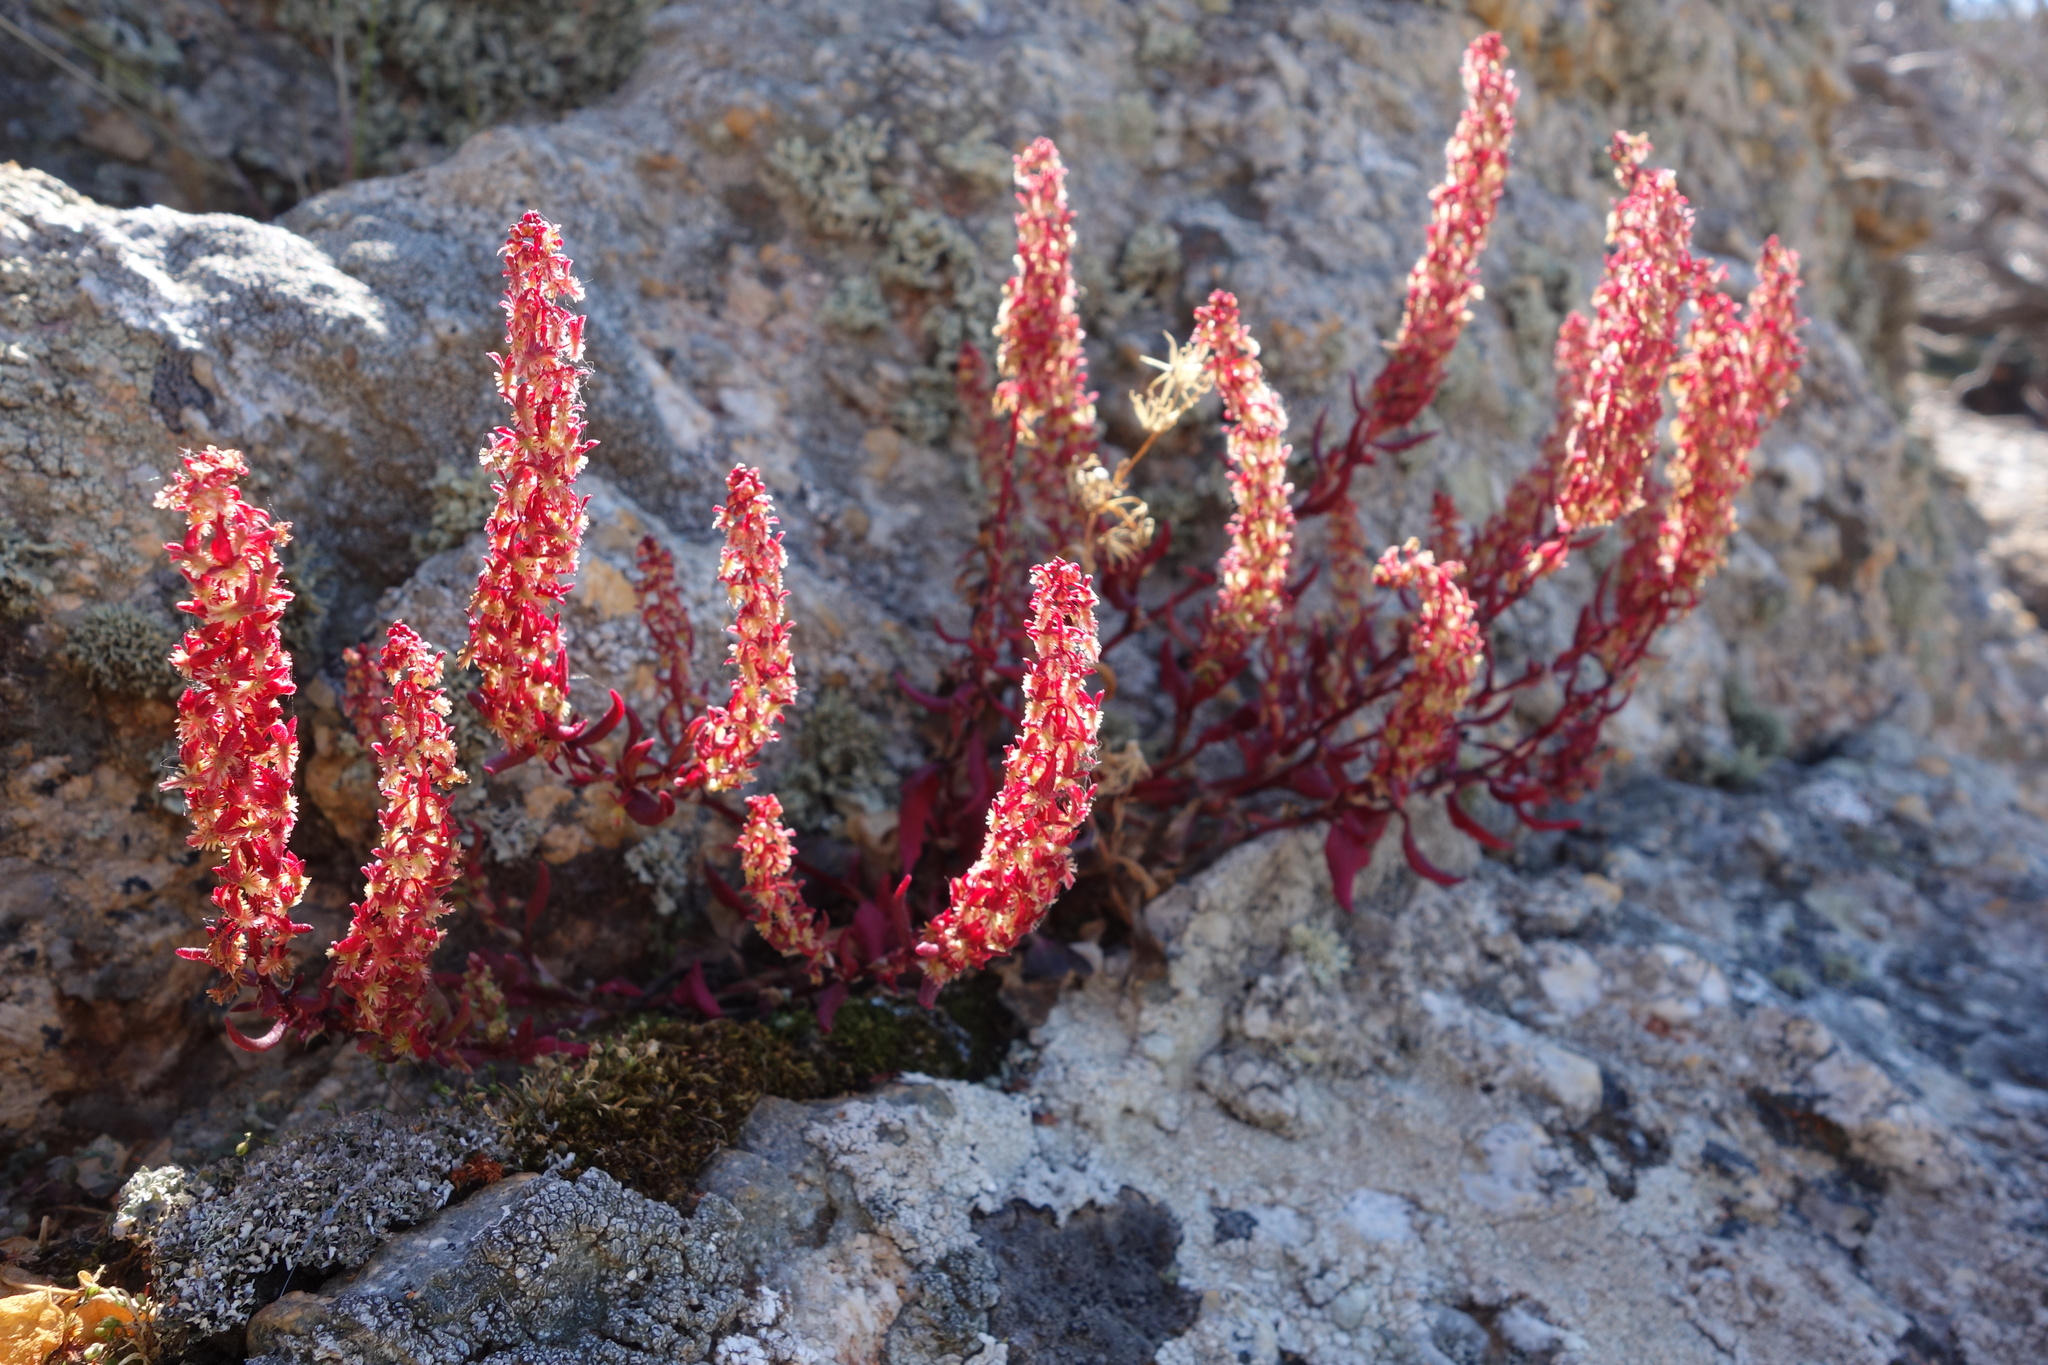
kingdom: Plantae
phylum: Tracheophyta
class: Magnoliopsida
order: Caryophyllales
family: Polygonaceae
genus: Rumex
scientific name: Rumex bucephalophorus
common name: Red dock
